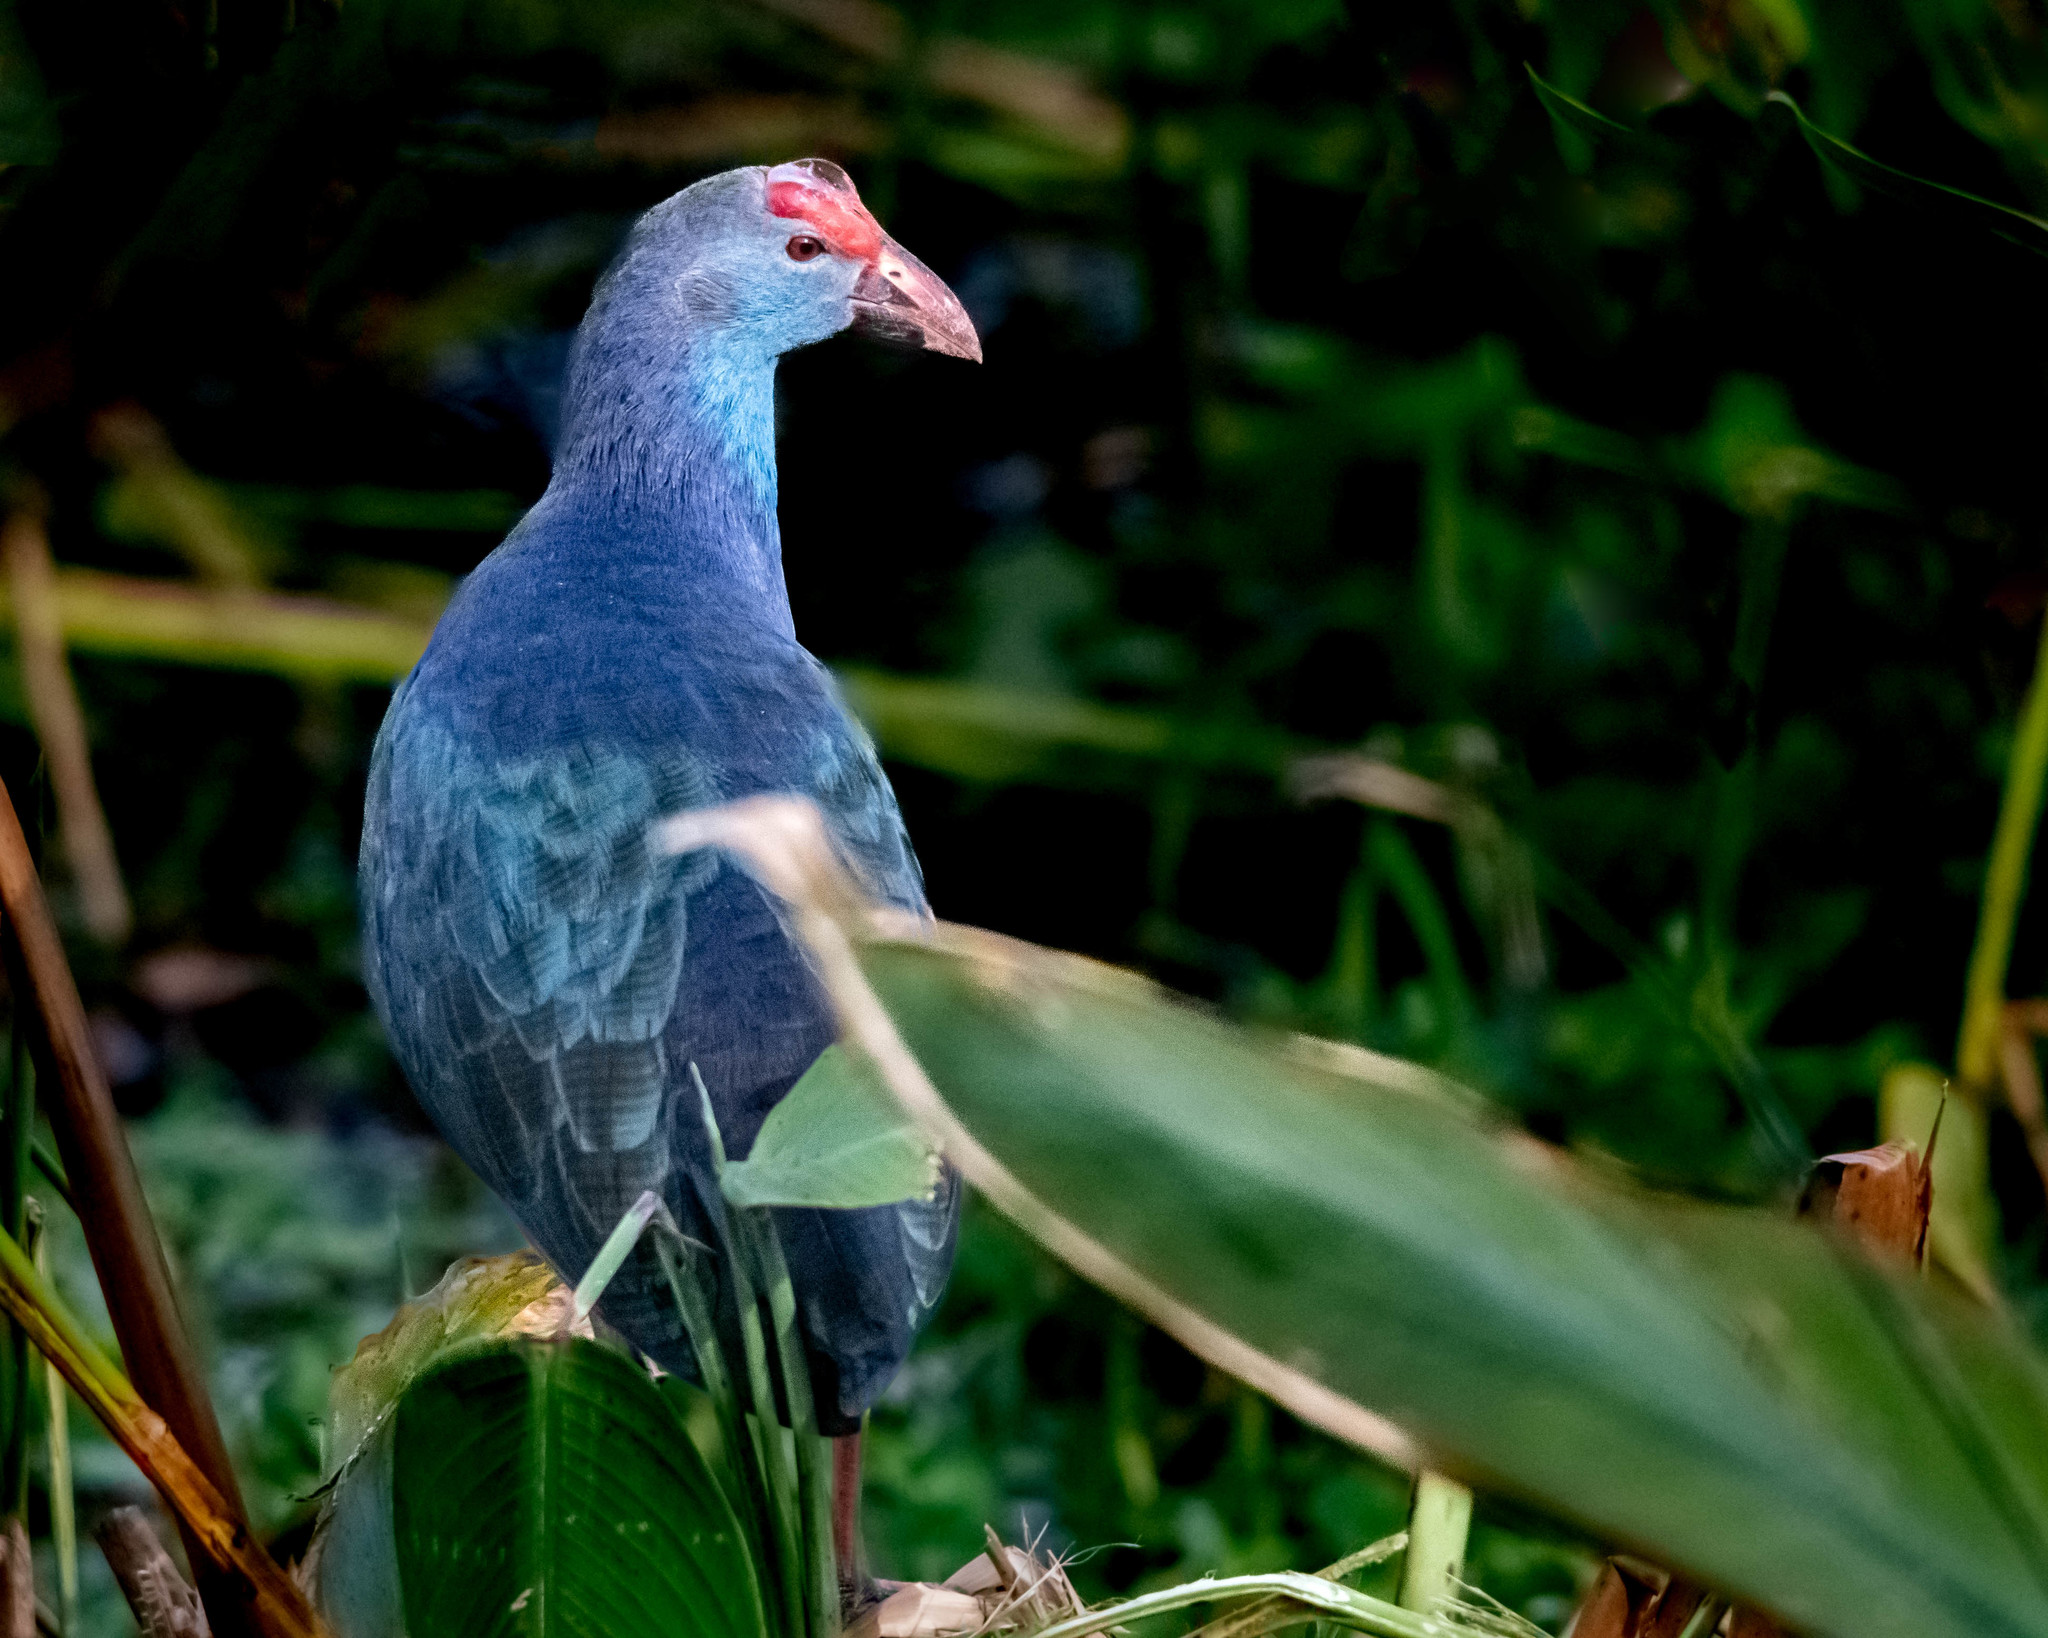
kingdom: Animalia
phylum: Chordata
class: Aves
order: Gruiformes
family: Rallidae
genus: Porphyrio
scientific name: Porphyrio porphyrio
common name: Purple swamphen
